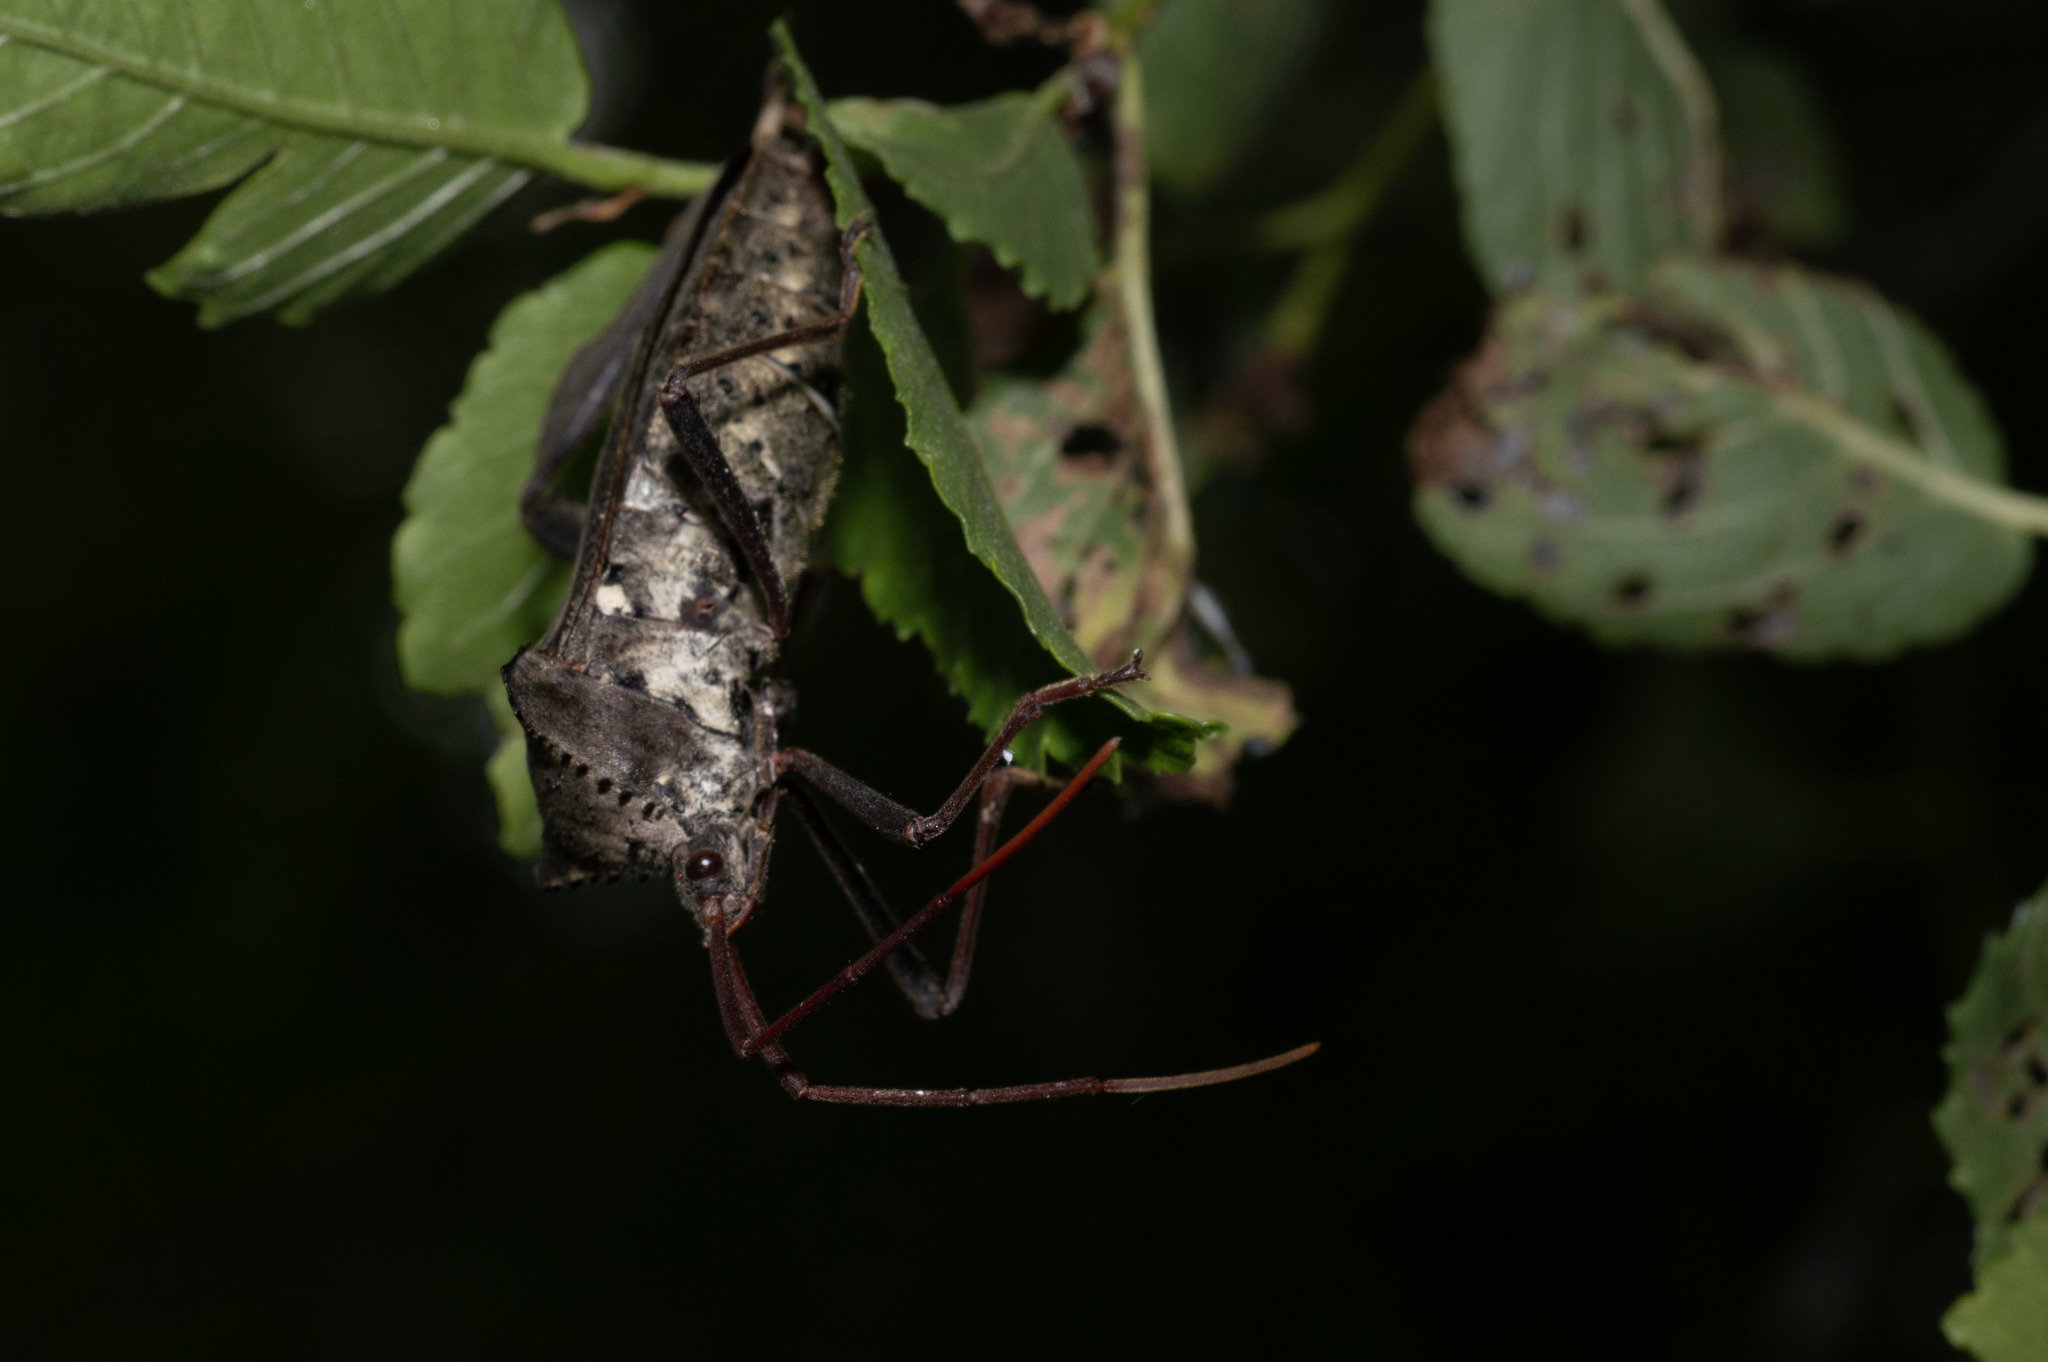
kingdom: Animalia
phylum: Arthropoda
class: Insecta
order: Hemiptera
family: Coreidae
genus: Acanthocephala
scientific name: Acanthocephala declivis
